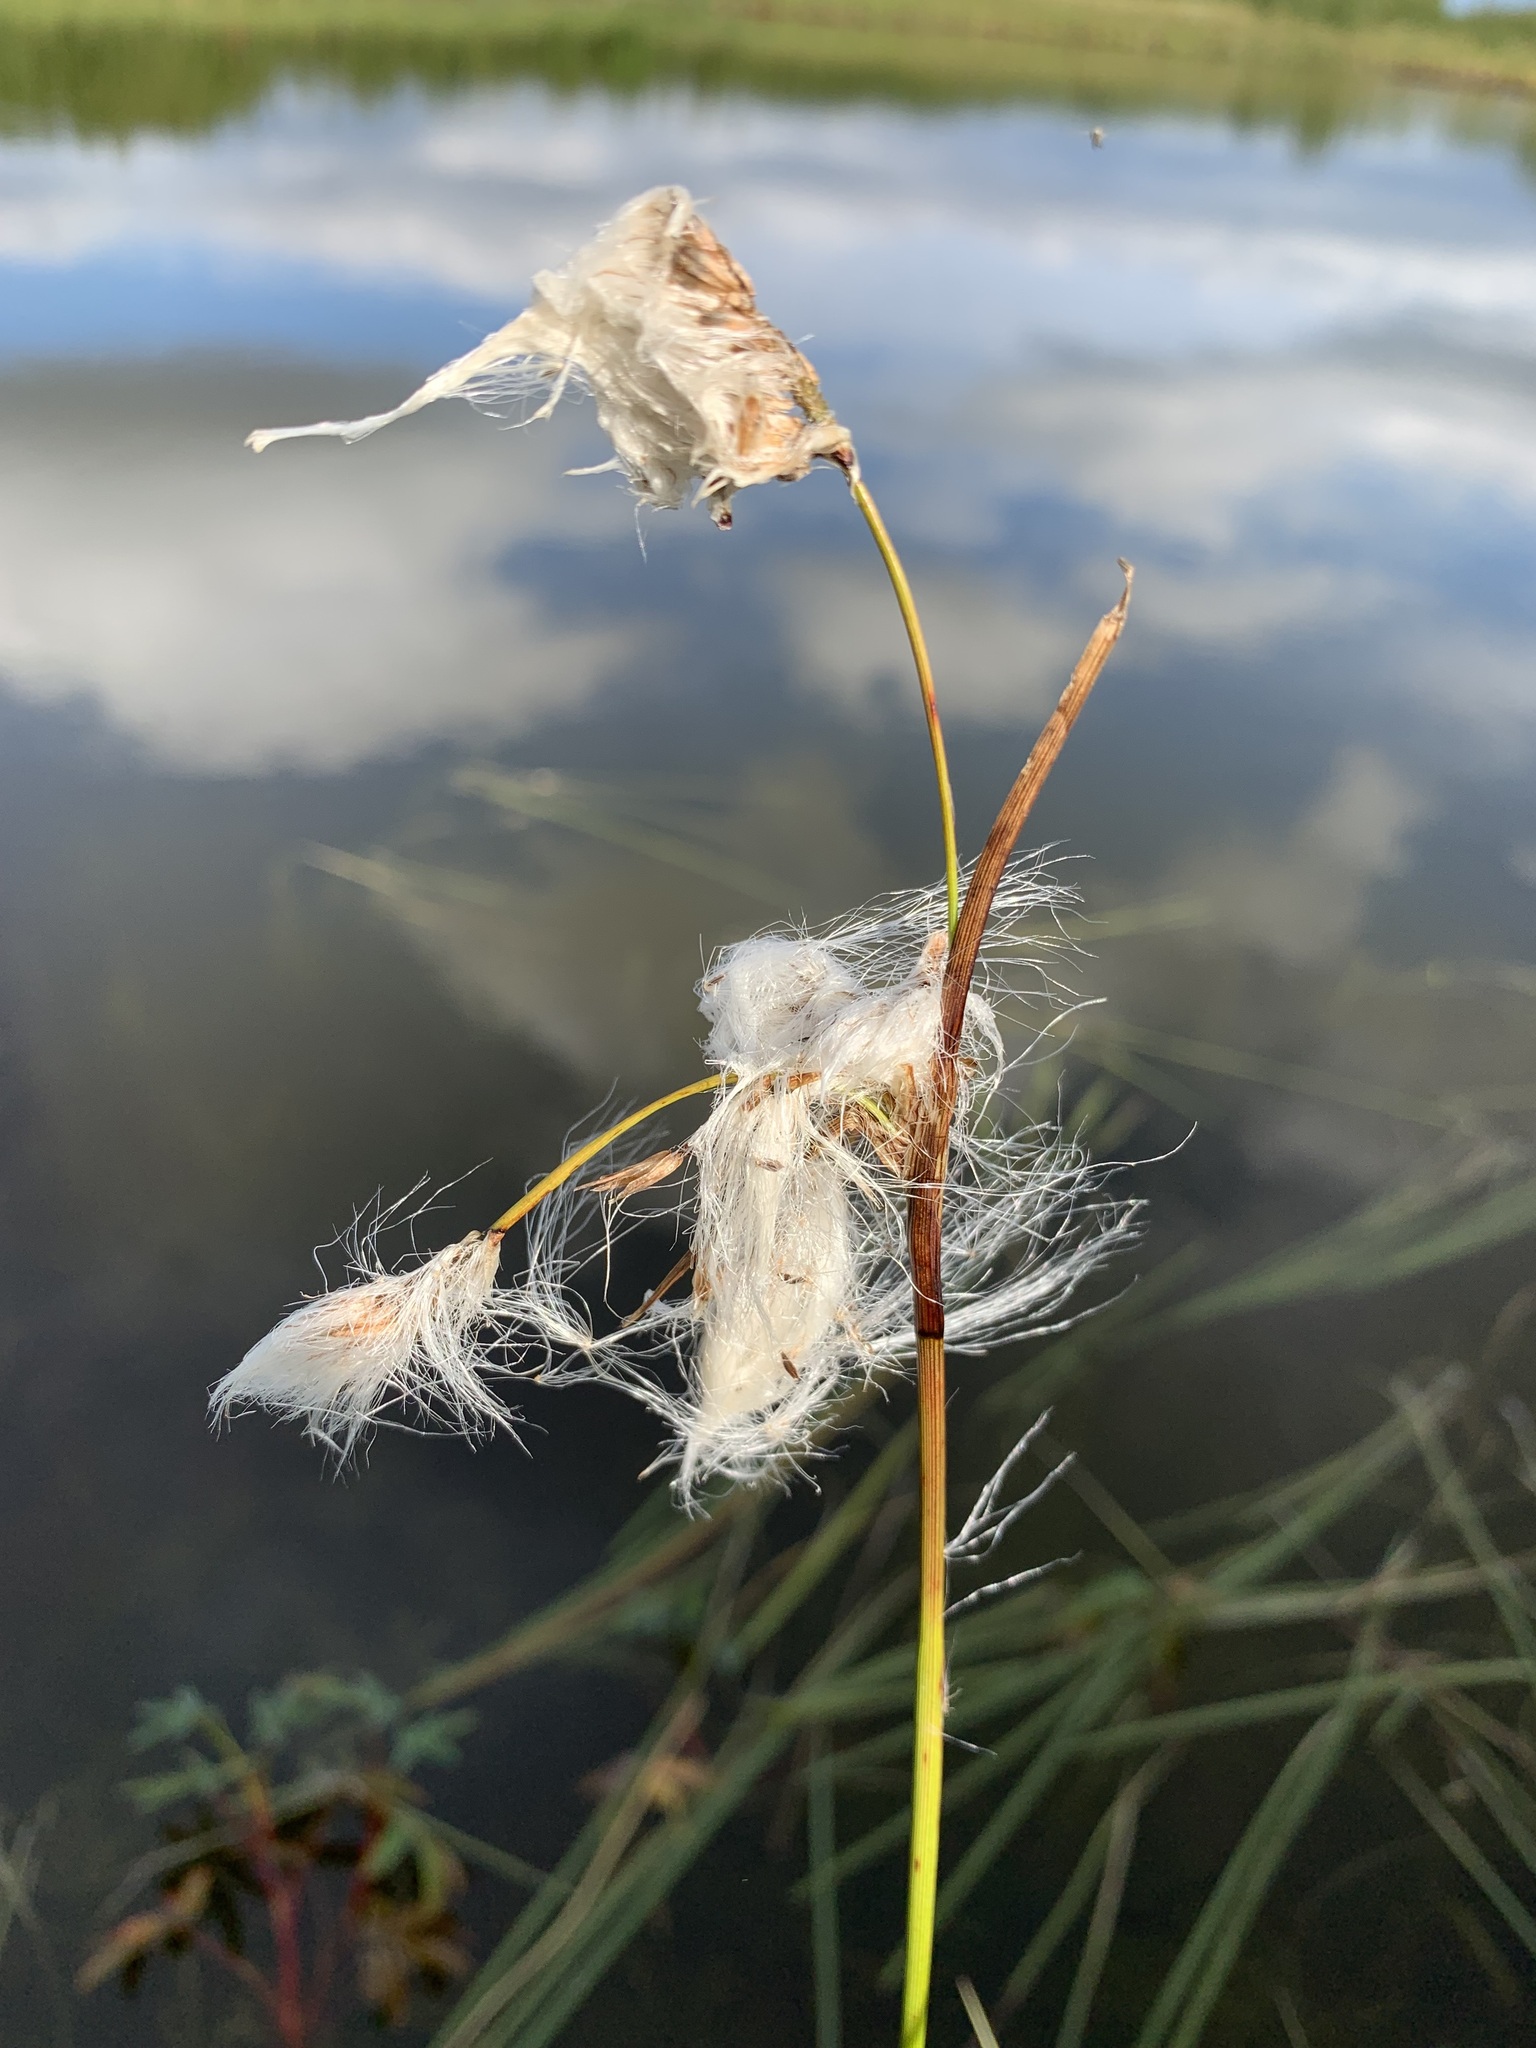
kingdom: Plantae
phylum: Tracheophyta
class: Liliopsida
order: Poales
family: Cyperaceae
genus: Eriophorum
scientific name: Eriophorum angustifolium
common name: Common cottongrass
